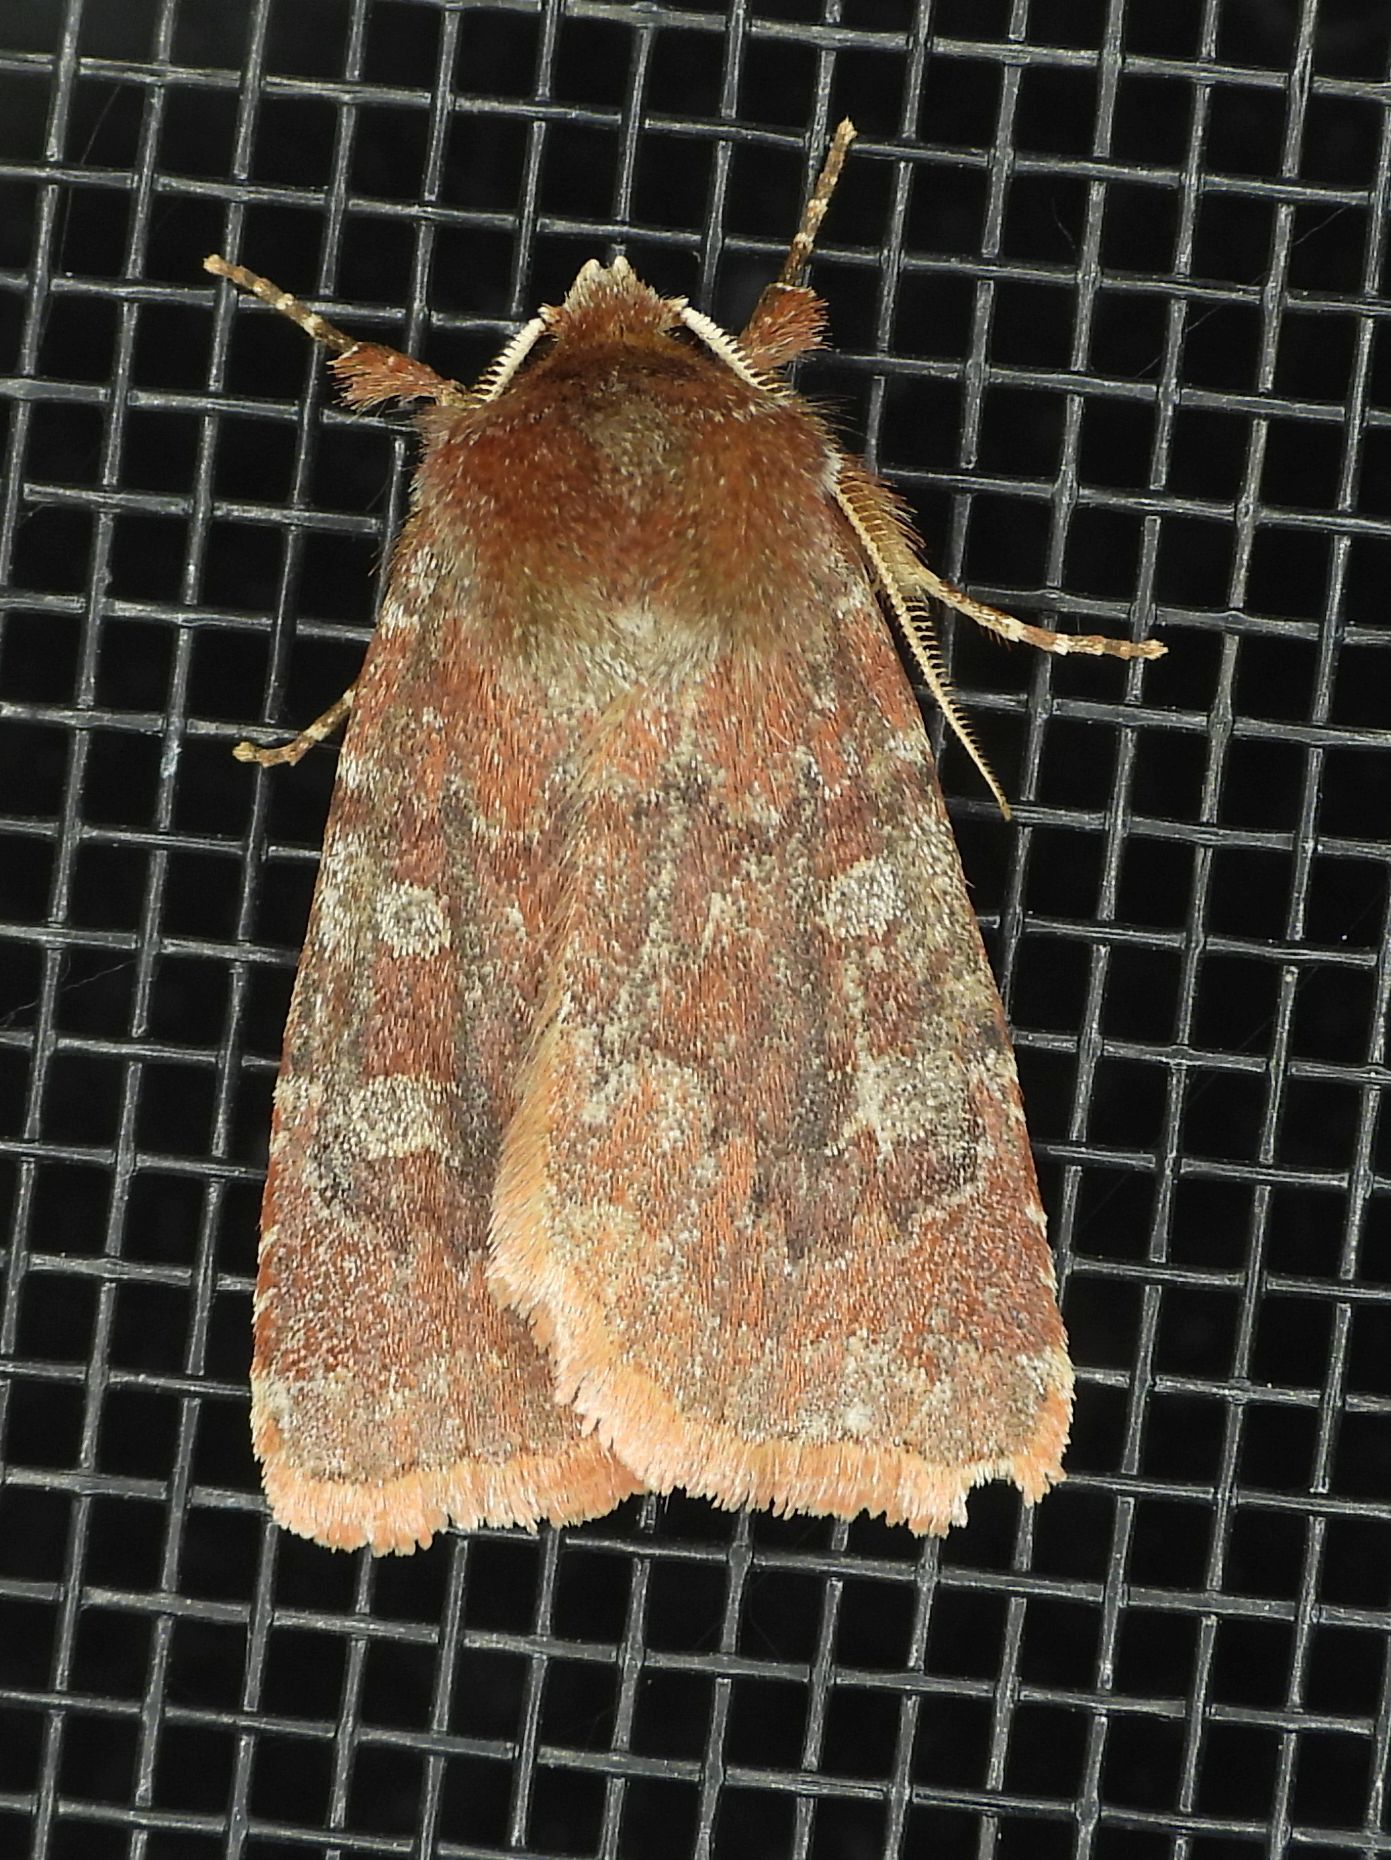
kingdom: Animalia
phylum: Arthropoda
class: Insecta
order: Lepidoptera
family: Noctuidae
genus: Cerastis
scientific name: Cerastis tenebrifera
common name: Reddish speckled dart
